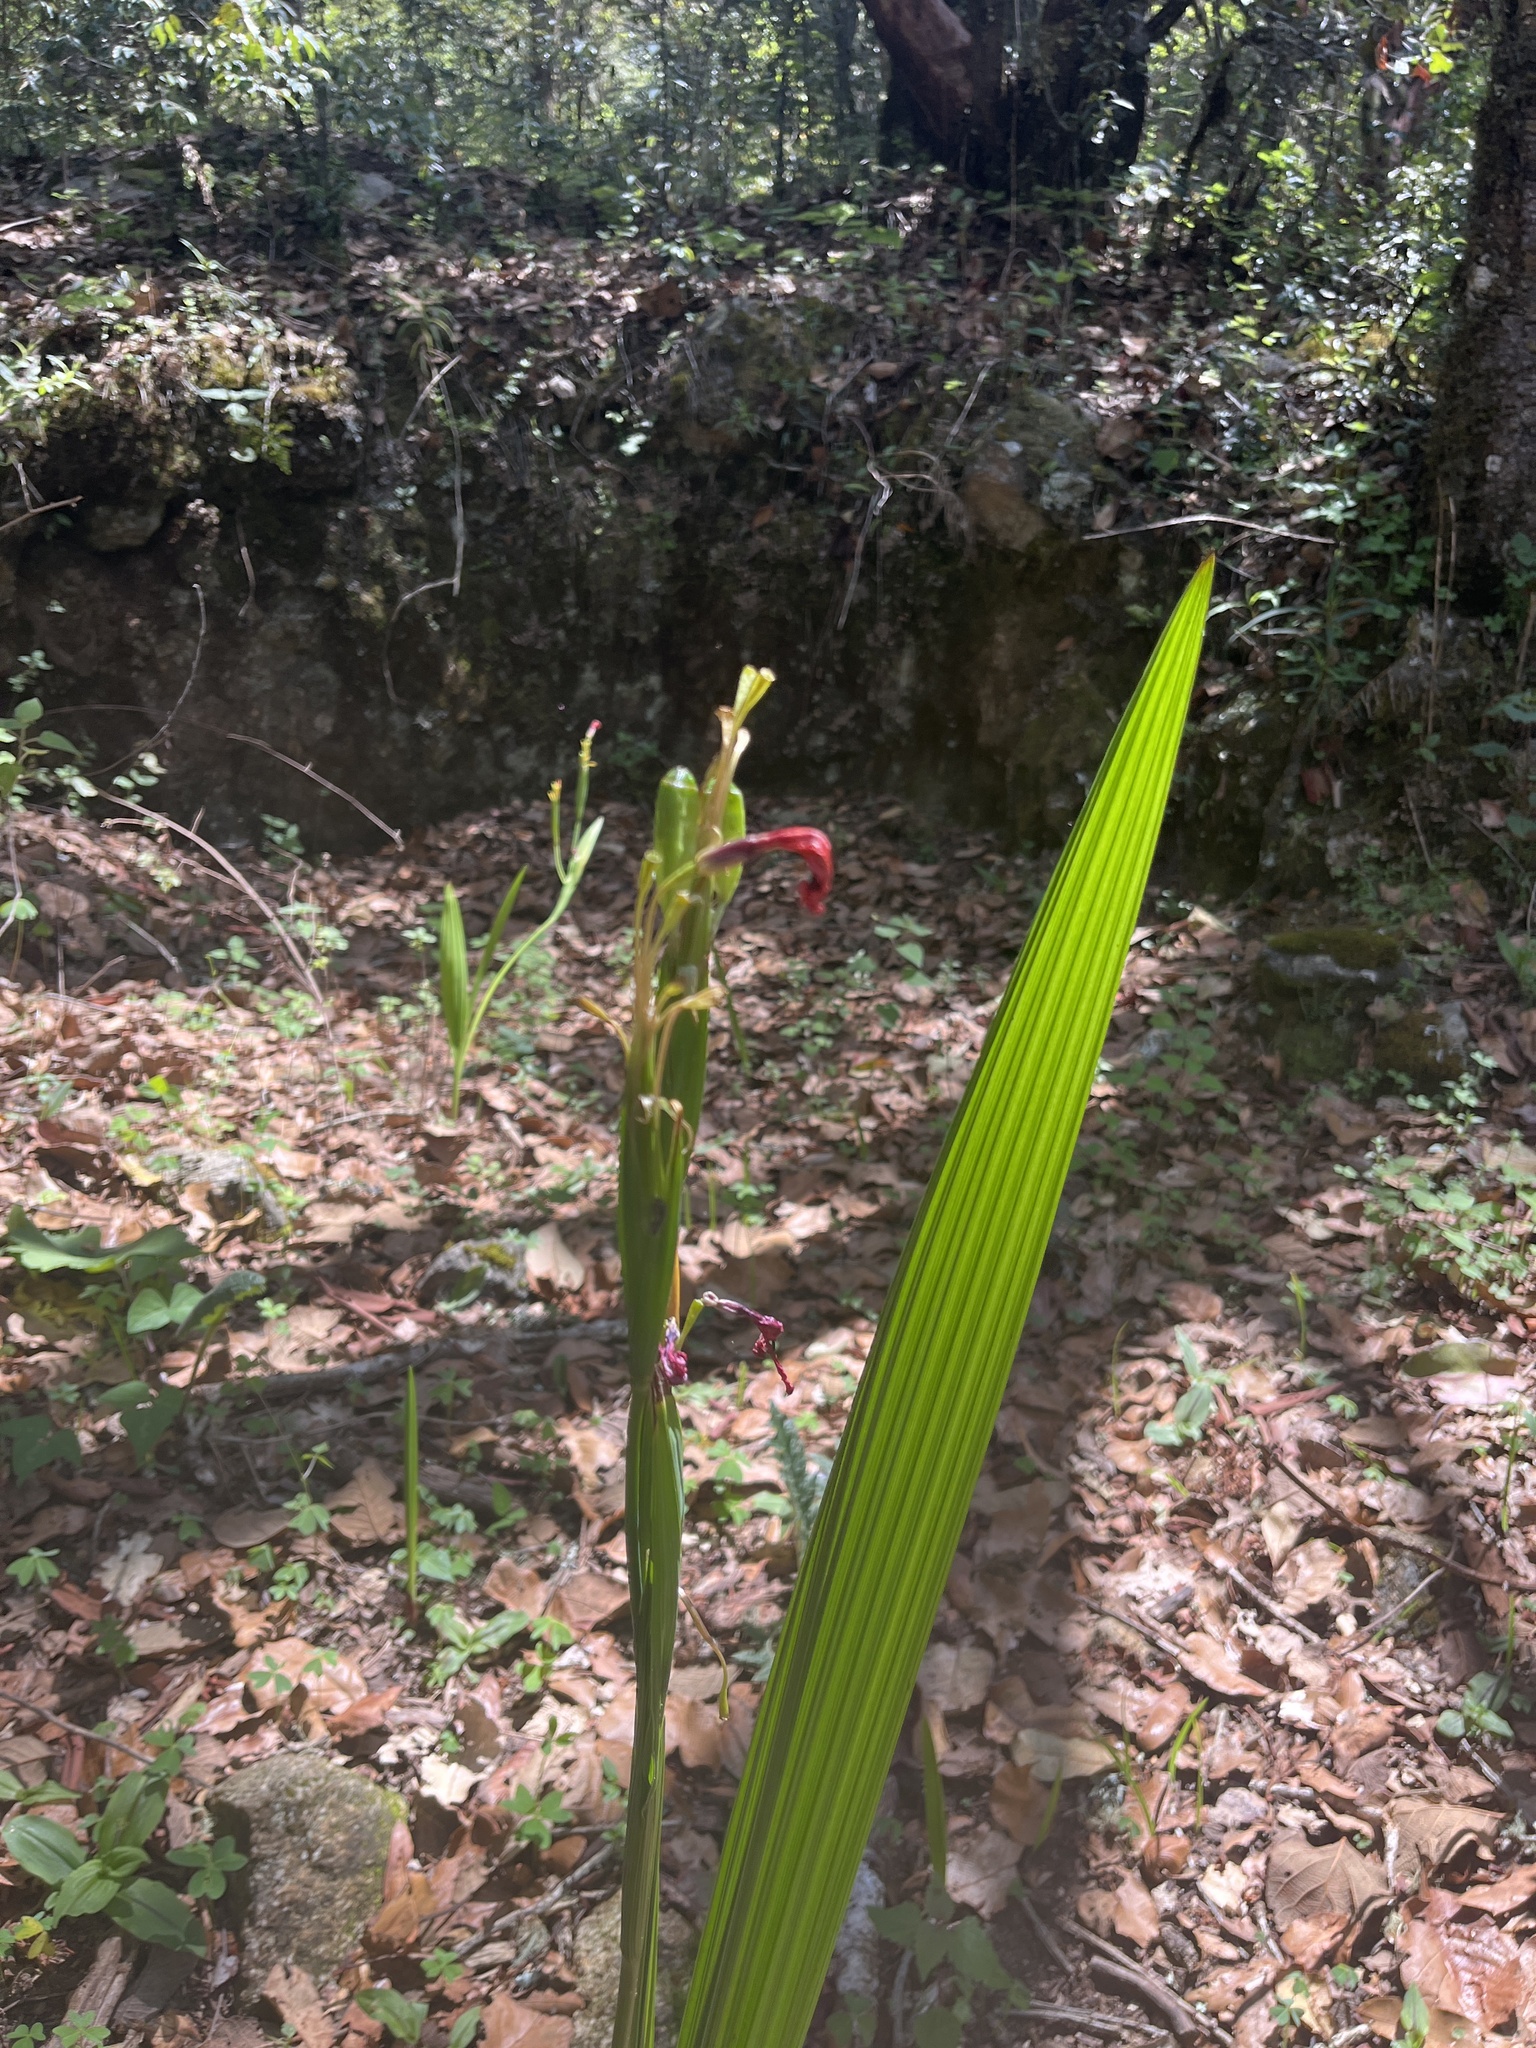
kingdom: Plantae
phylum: Tracheophyta
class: Liliopsida
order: Asparagales
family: Iridaceae
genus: Tigridia
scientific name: Tigridia orthantha
